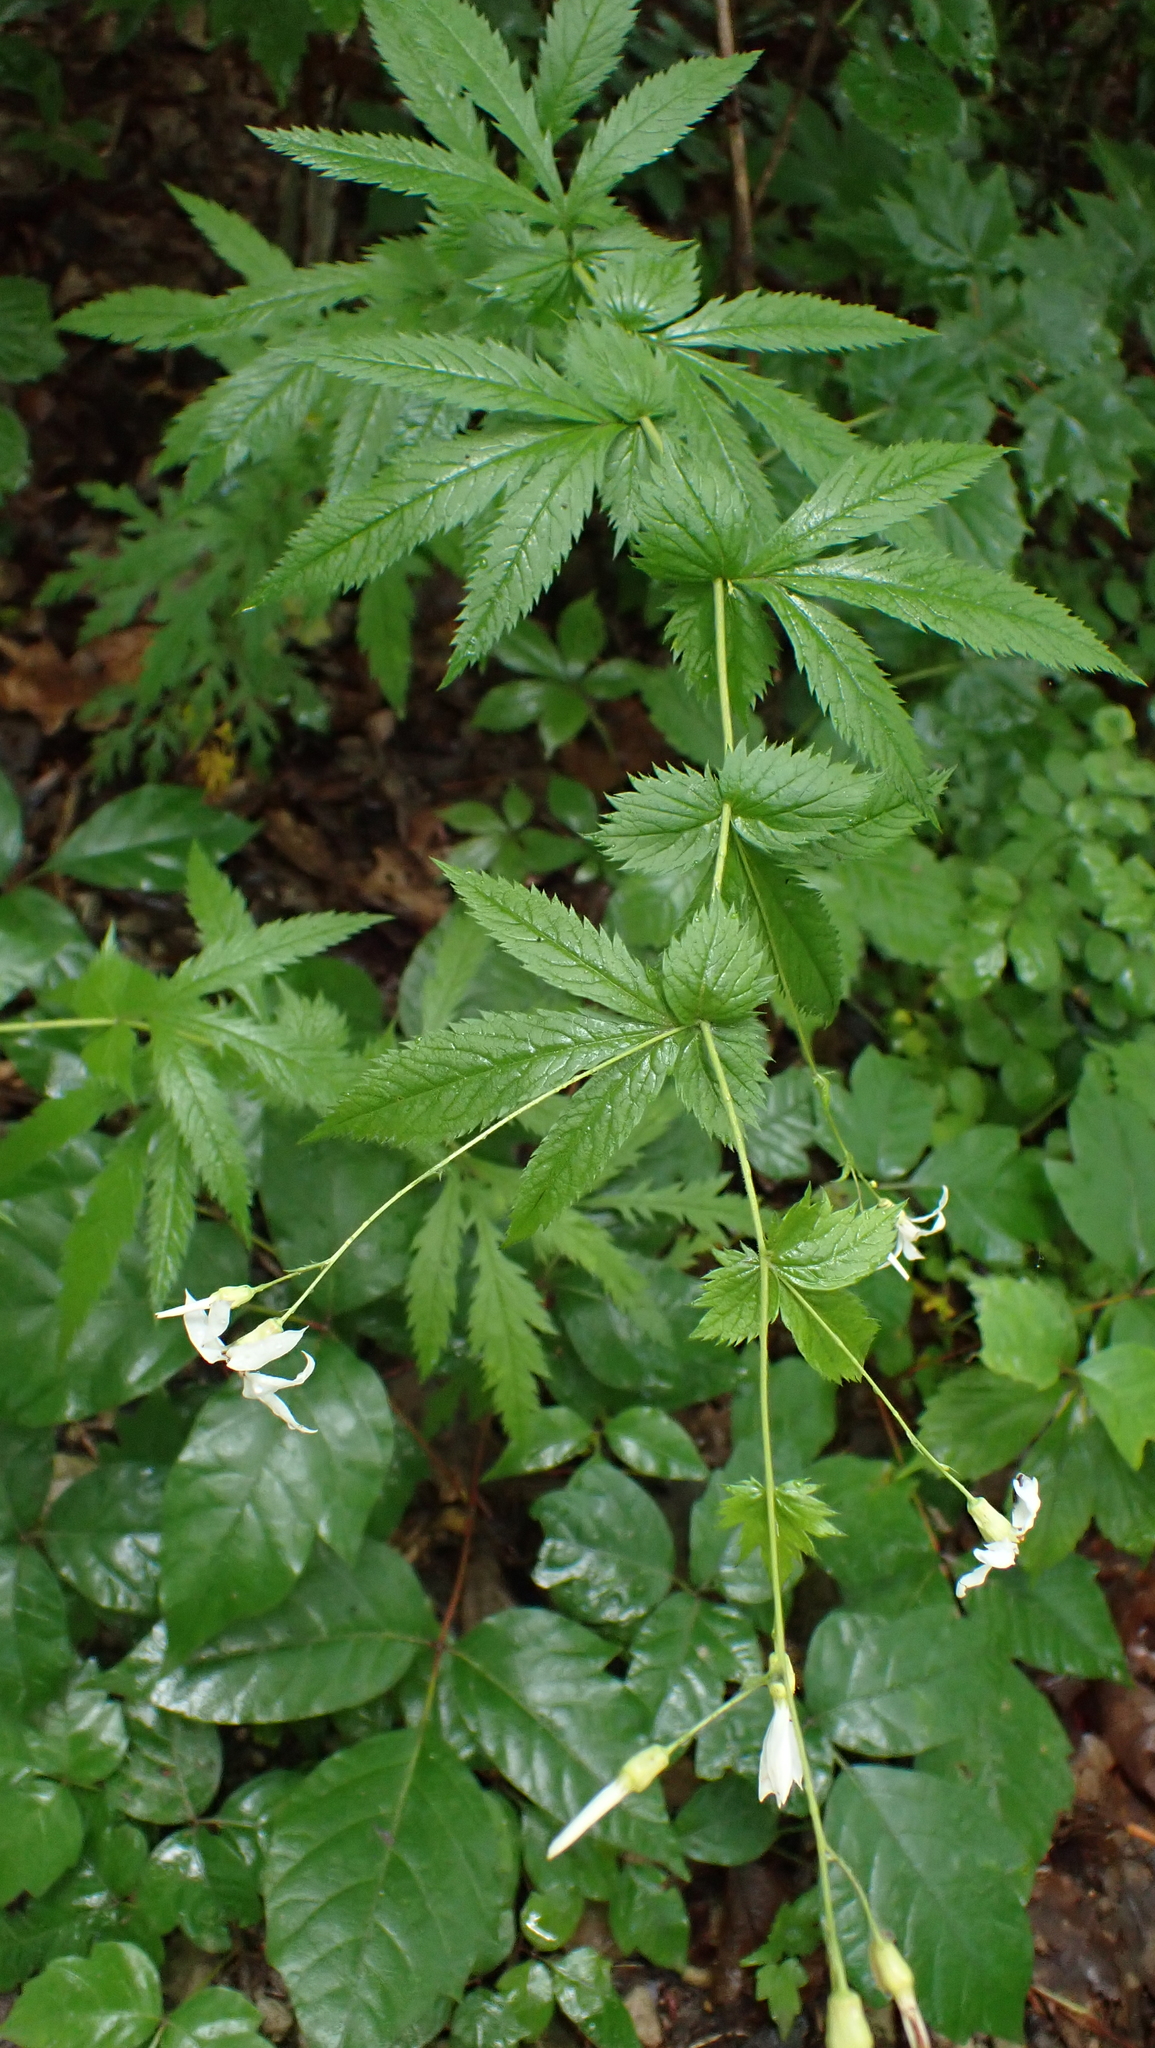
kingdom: Plantae
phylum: Tracheophyta
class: Magnoliopsida
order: Rosales
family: Rosaceae
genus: Gillenia
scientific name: Gillenia stipulata
